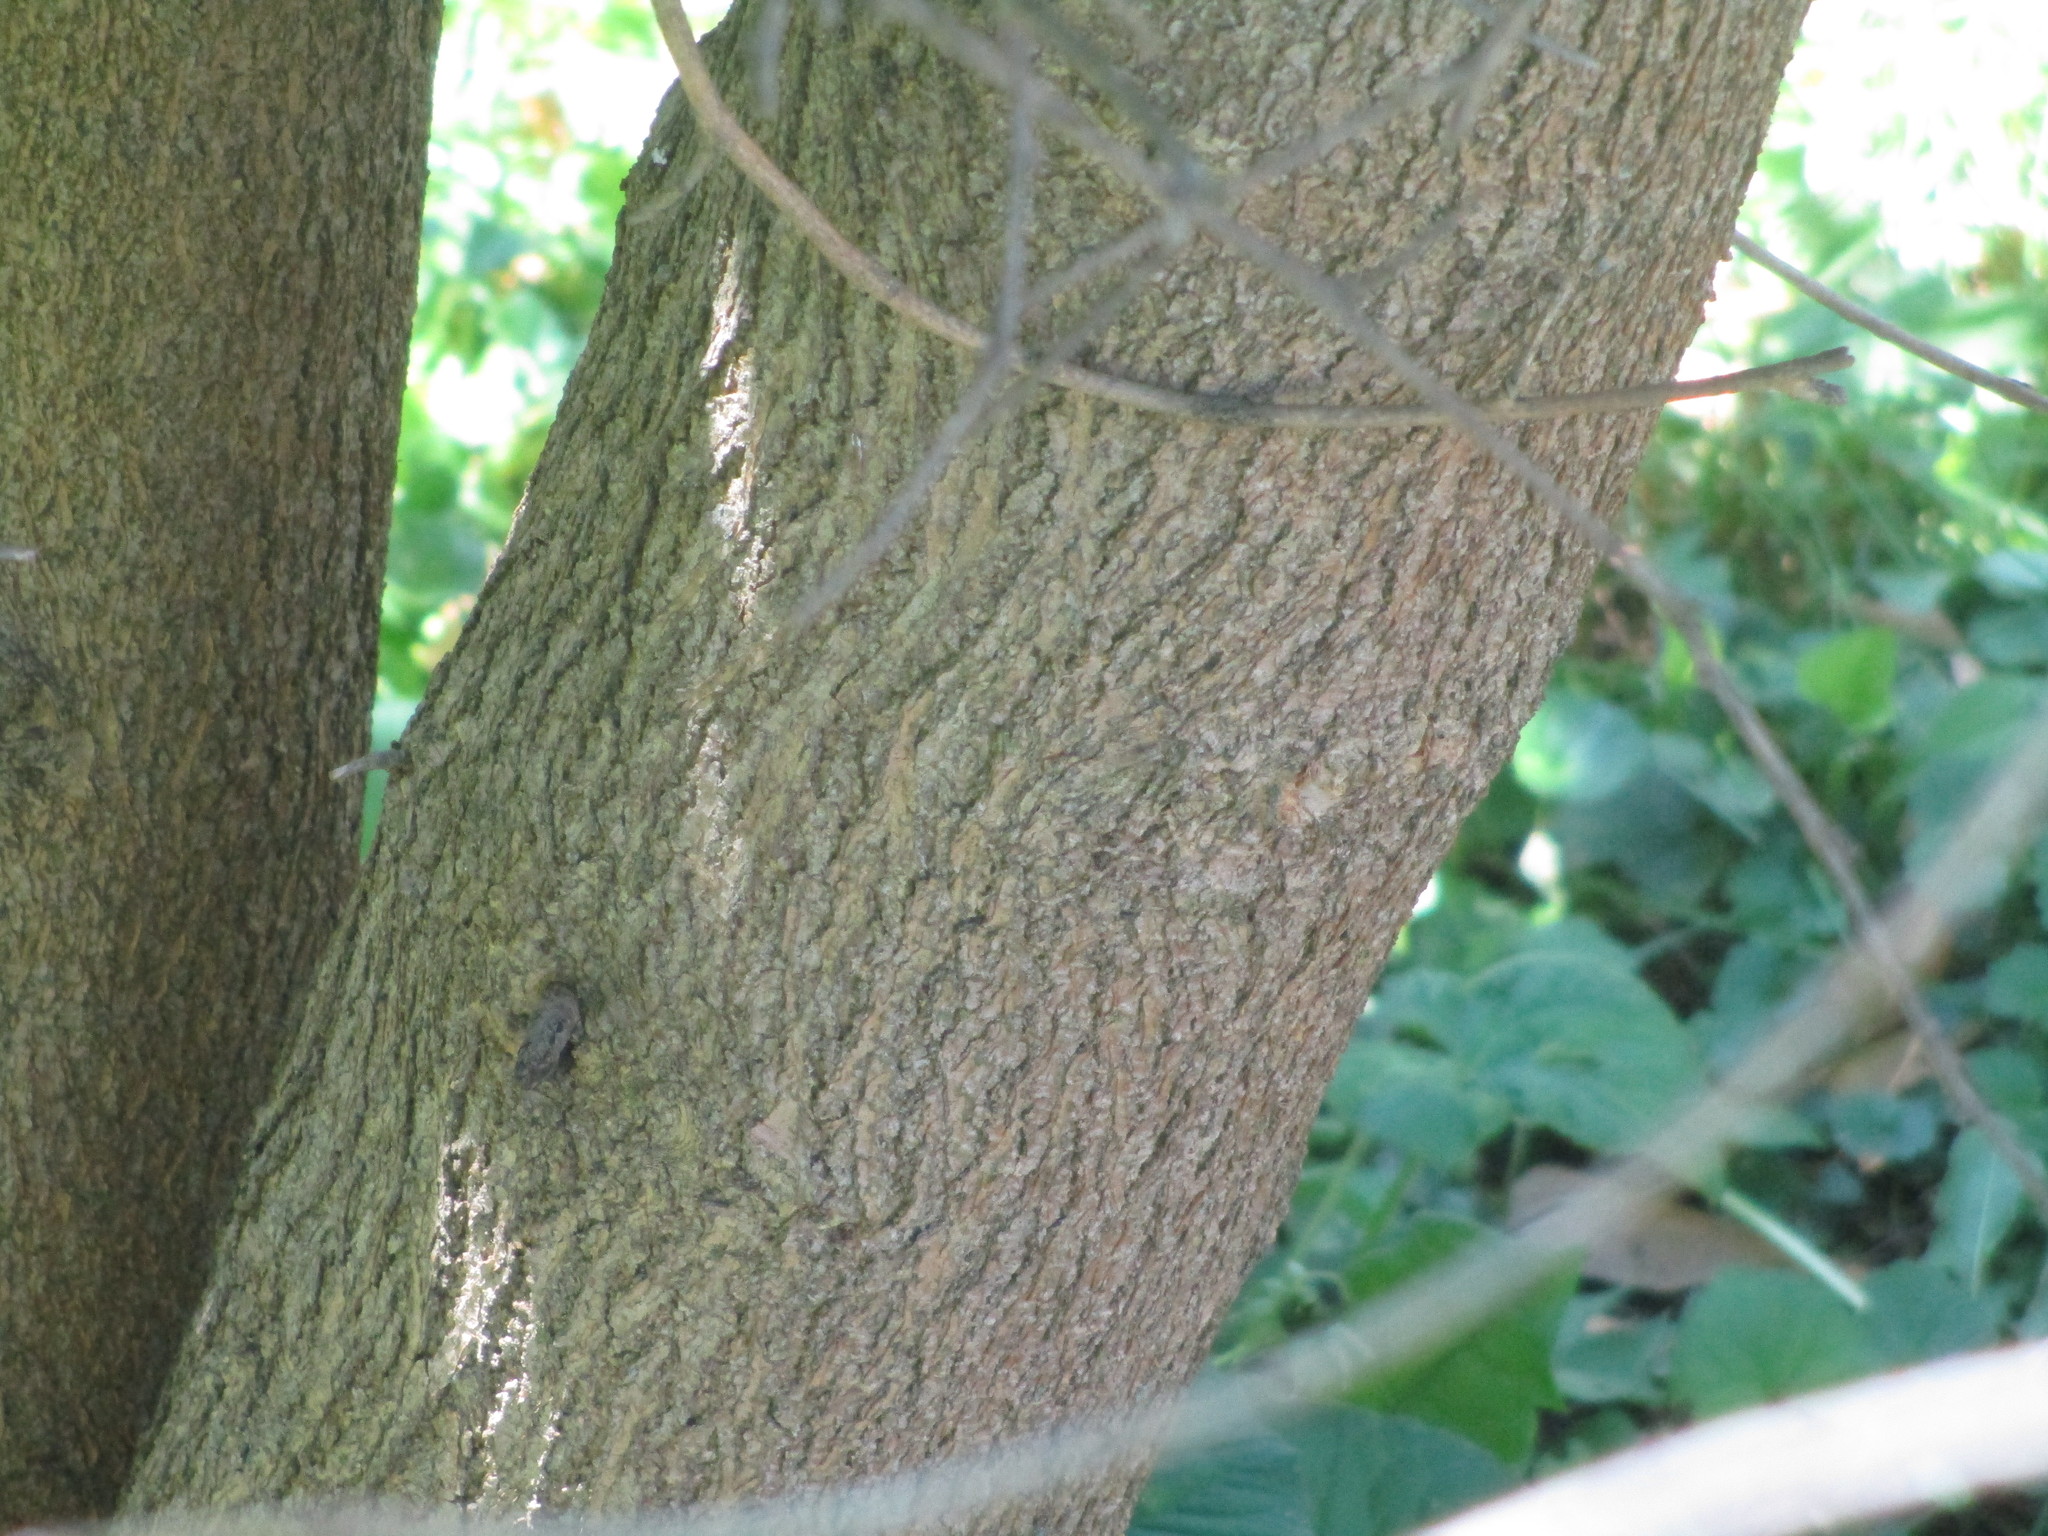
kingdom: Plantae
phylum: Tracheophyta
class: Magnoliopsida
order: Rosales
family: Moraceae
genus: Morus
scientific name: Morus alba
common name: White mulberry
